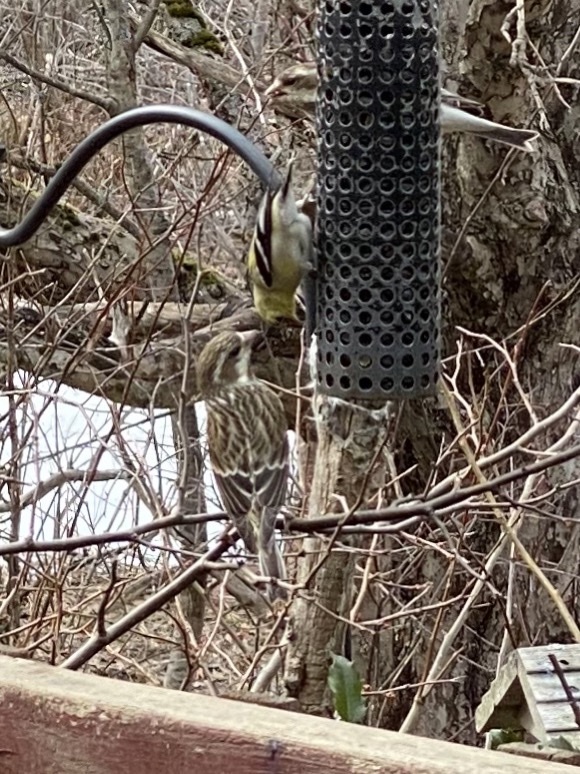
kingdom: Animalia
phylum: Chordata
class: Aves
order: Passeriformes
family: Fringillidae
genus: Spinus
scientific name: Spinus tristis
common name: American goldfinch
